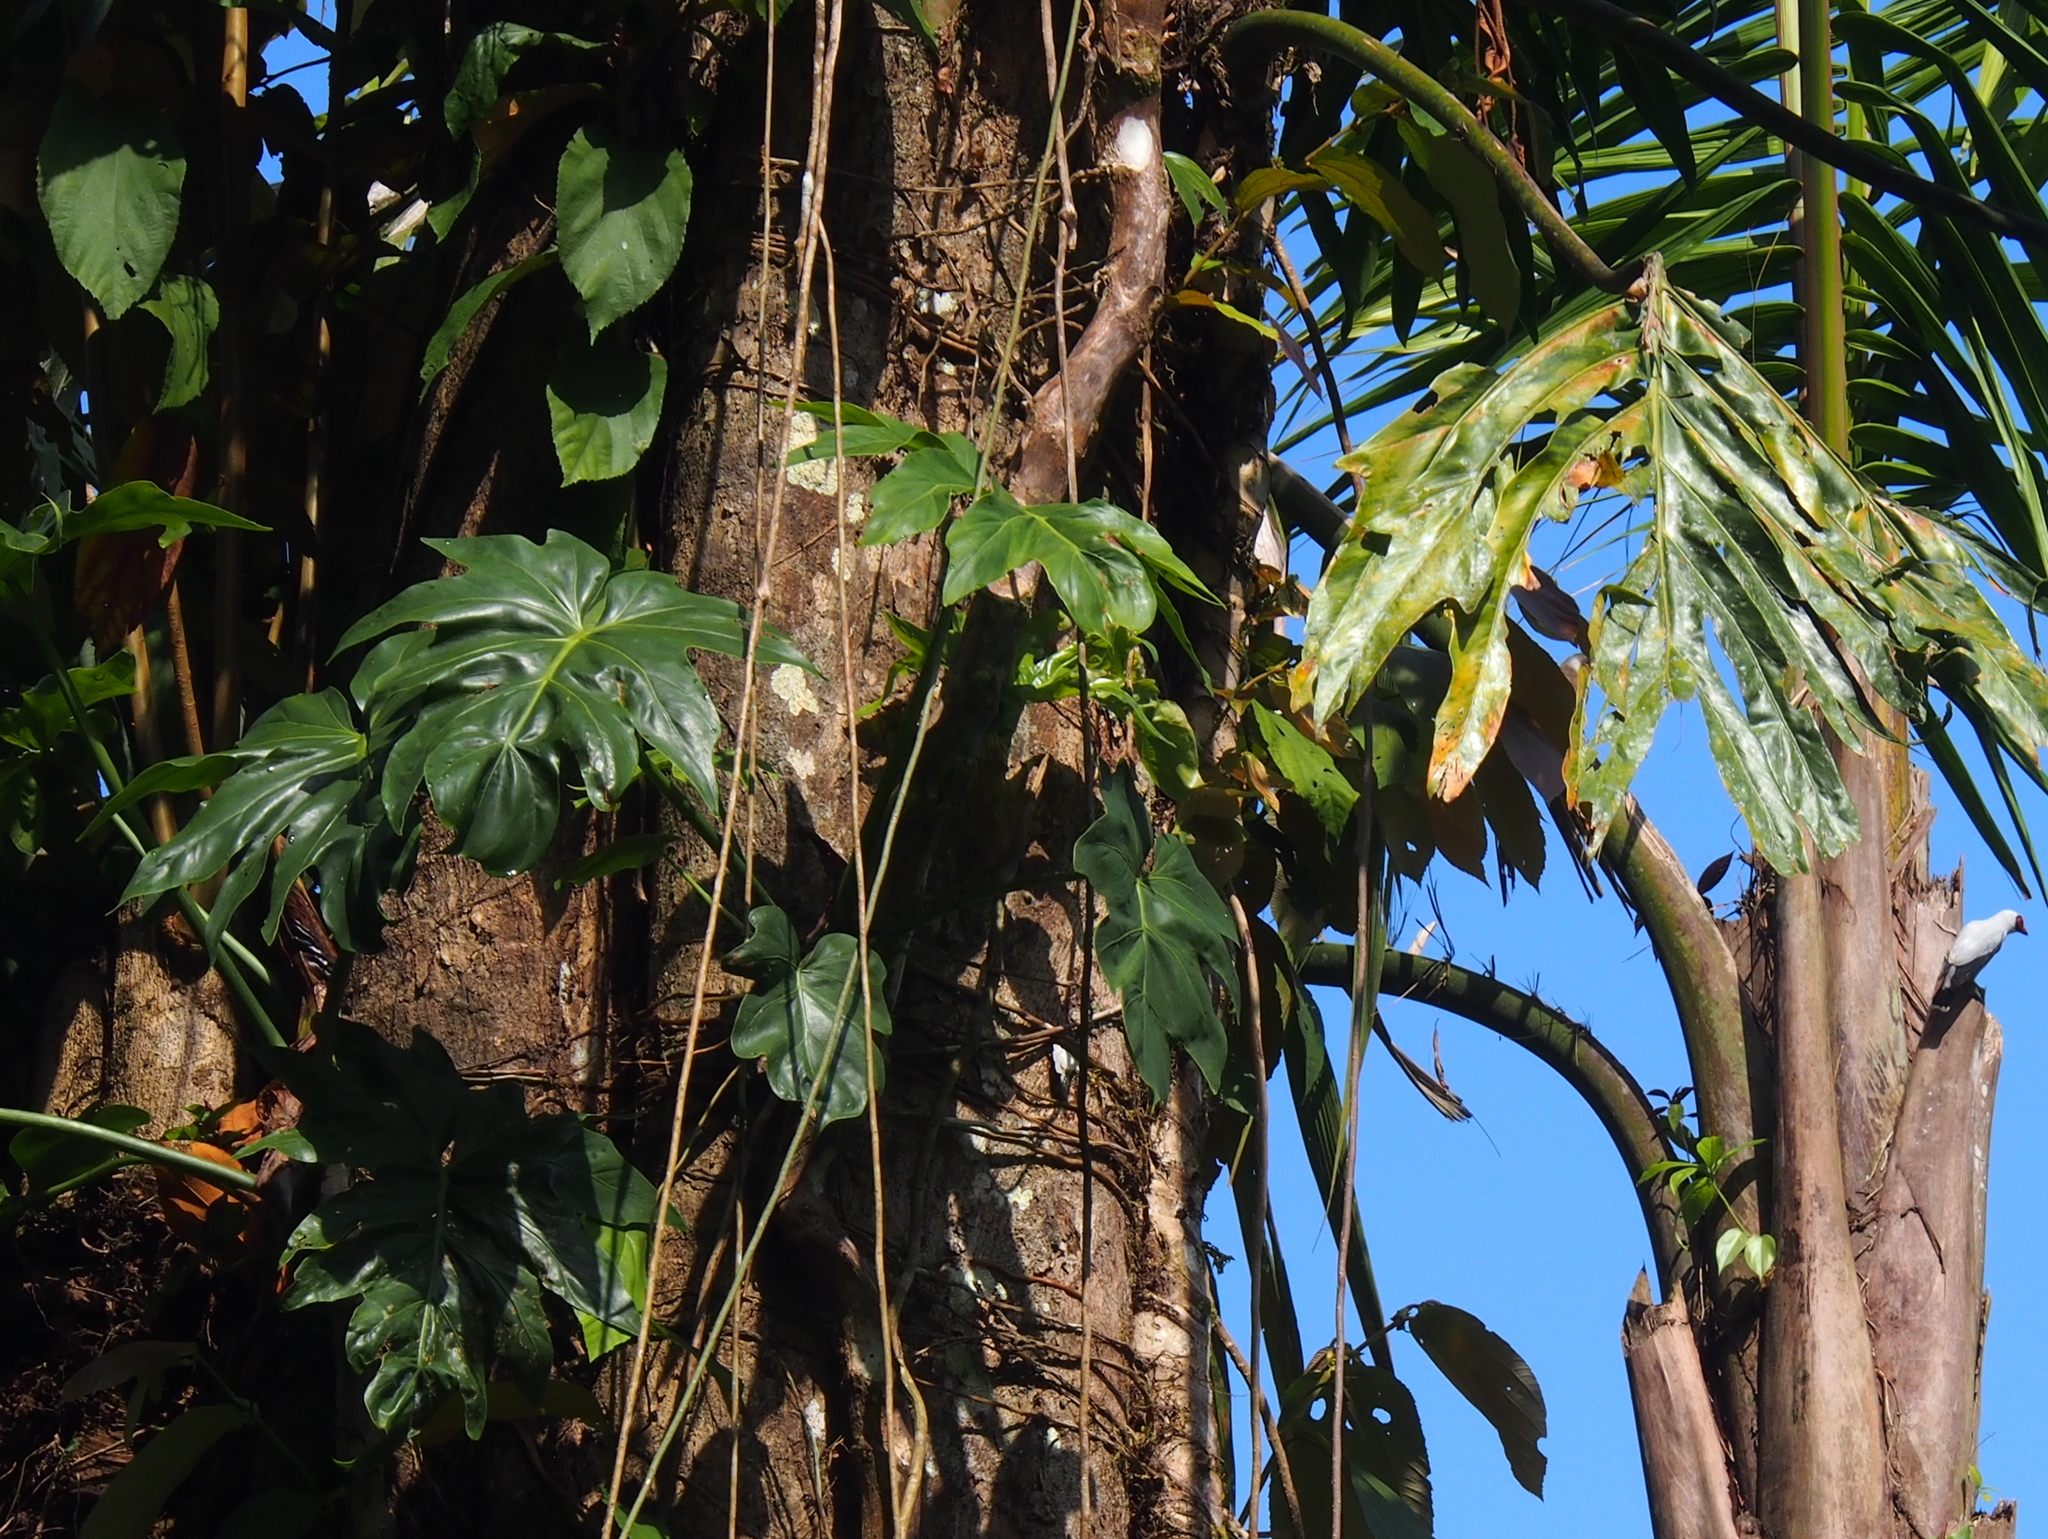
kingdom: Plantae
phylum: Tracheophyta
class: Liliopsida
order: Alismatales
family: Araceae
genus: Philodendron
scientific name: Philodendron radiatum
